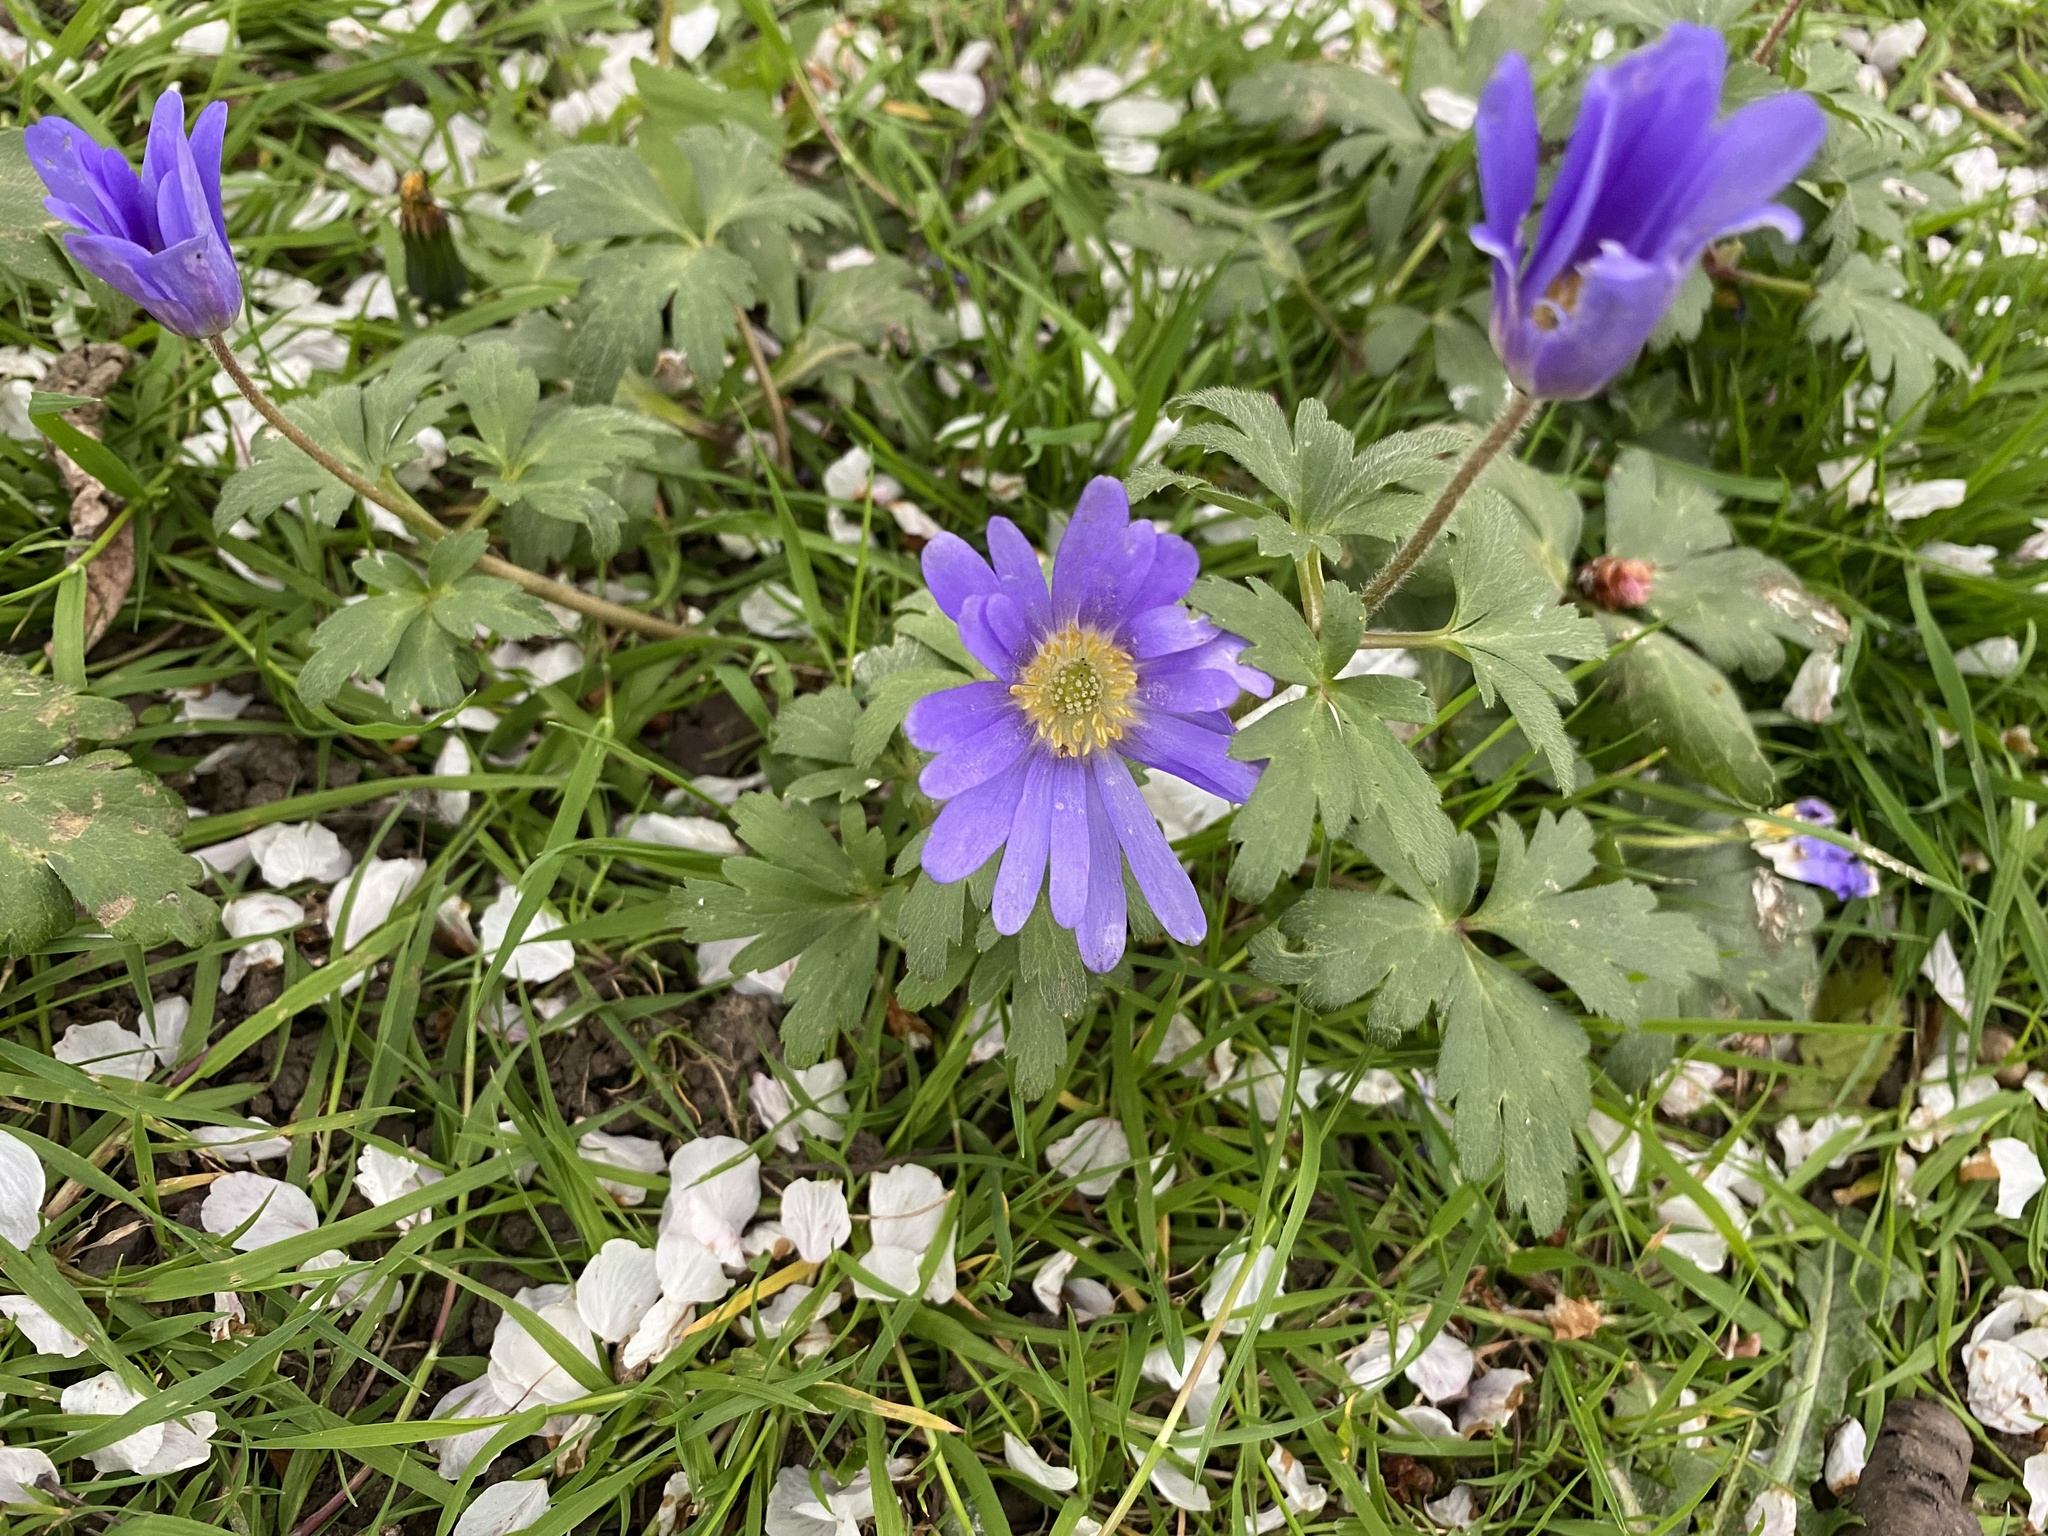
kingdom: Plantae
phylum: Tracheophyta
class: Magnoliopsida
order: Ranunculales
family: Ranunculaceae
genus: Anemone
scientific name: Anemone blanda
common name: Balkan anemone
